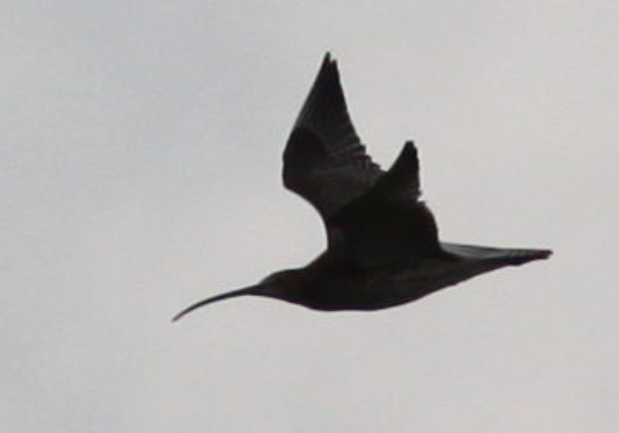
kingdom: Animalia
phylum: Chordata
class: Aves
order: Charadriiformes
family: Scolopacidae
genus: Numenius
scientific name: Numenius arquata
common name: Eurasian curlew
